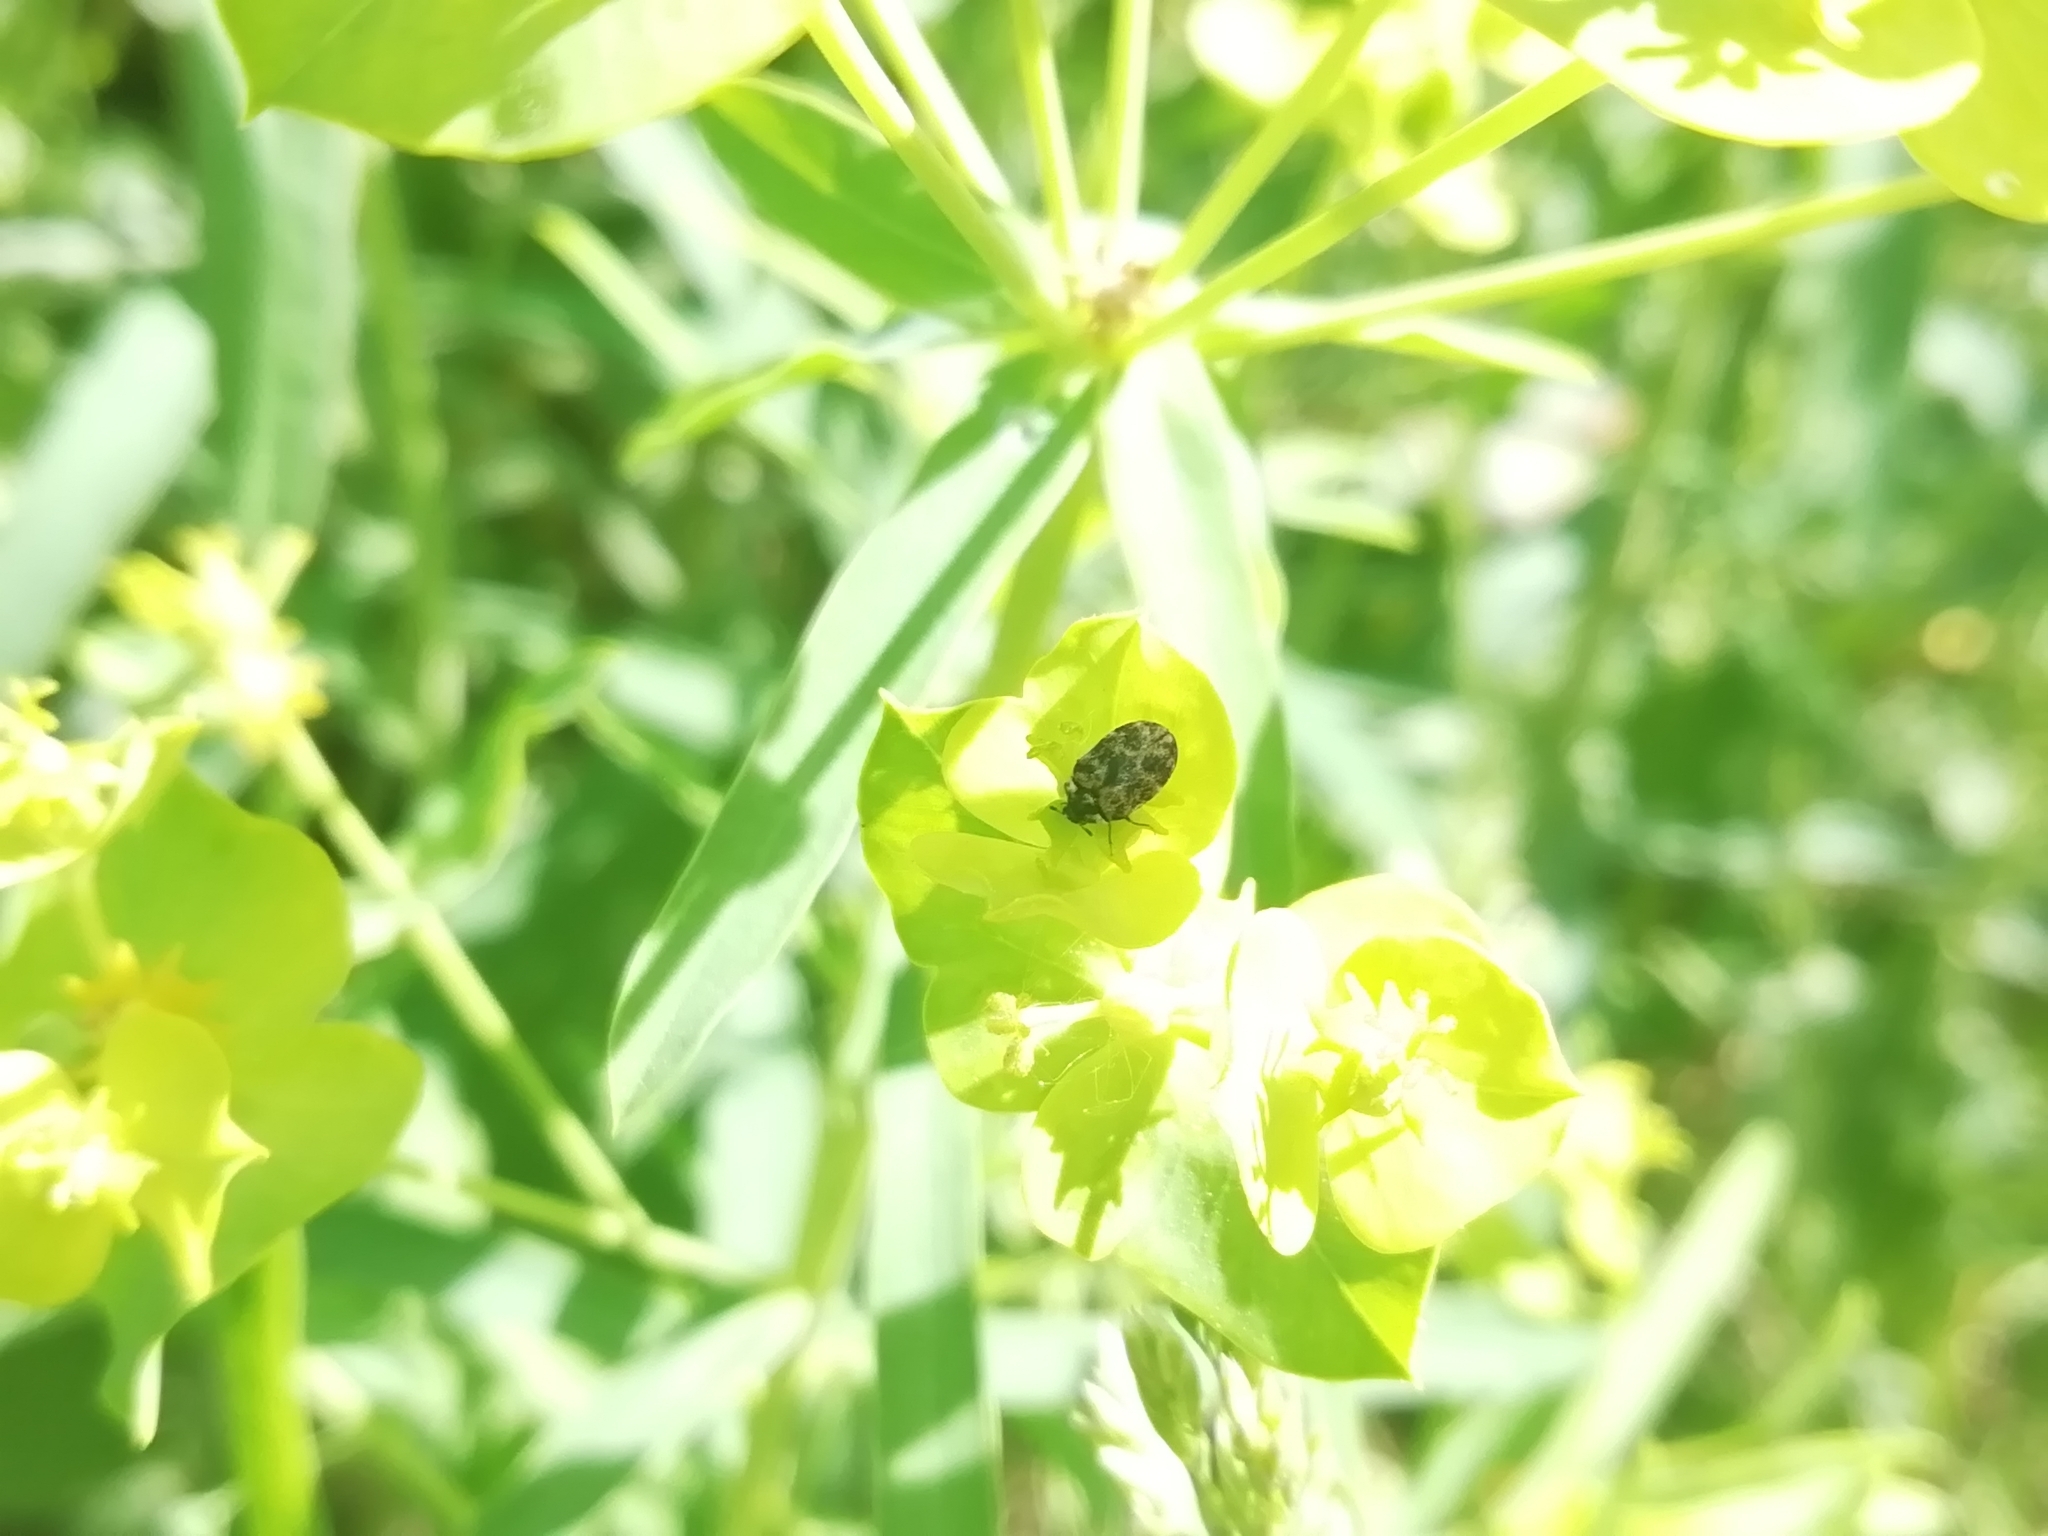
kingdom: Animalia
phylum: Arthropoda
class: Insecta
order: Coleoptera
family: Dermestidae
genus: Anthrenus
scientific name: Anthrenus museorum
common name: Museum beetle
